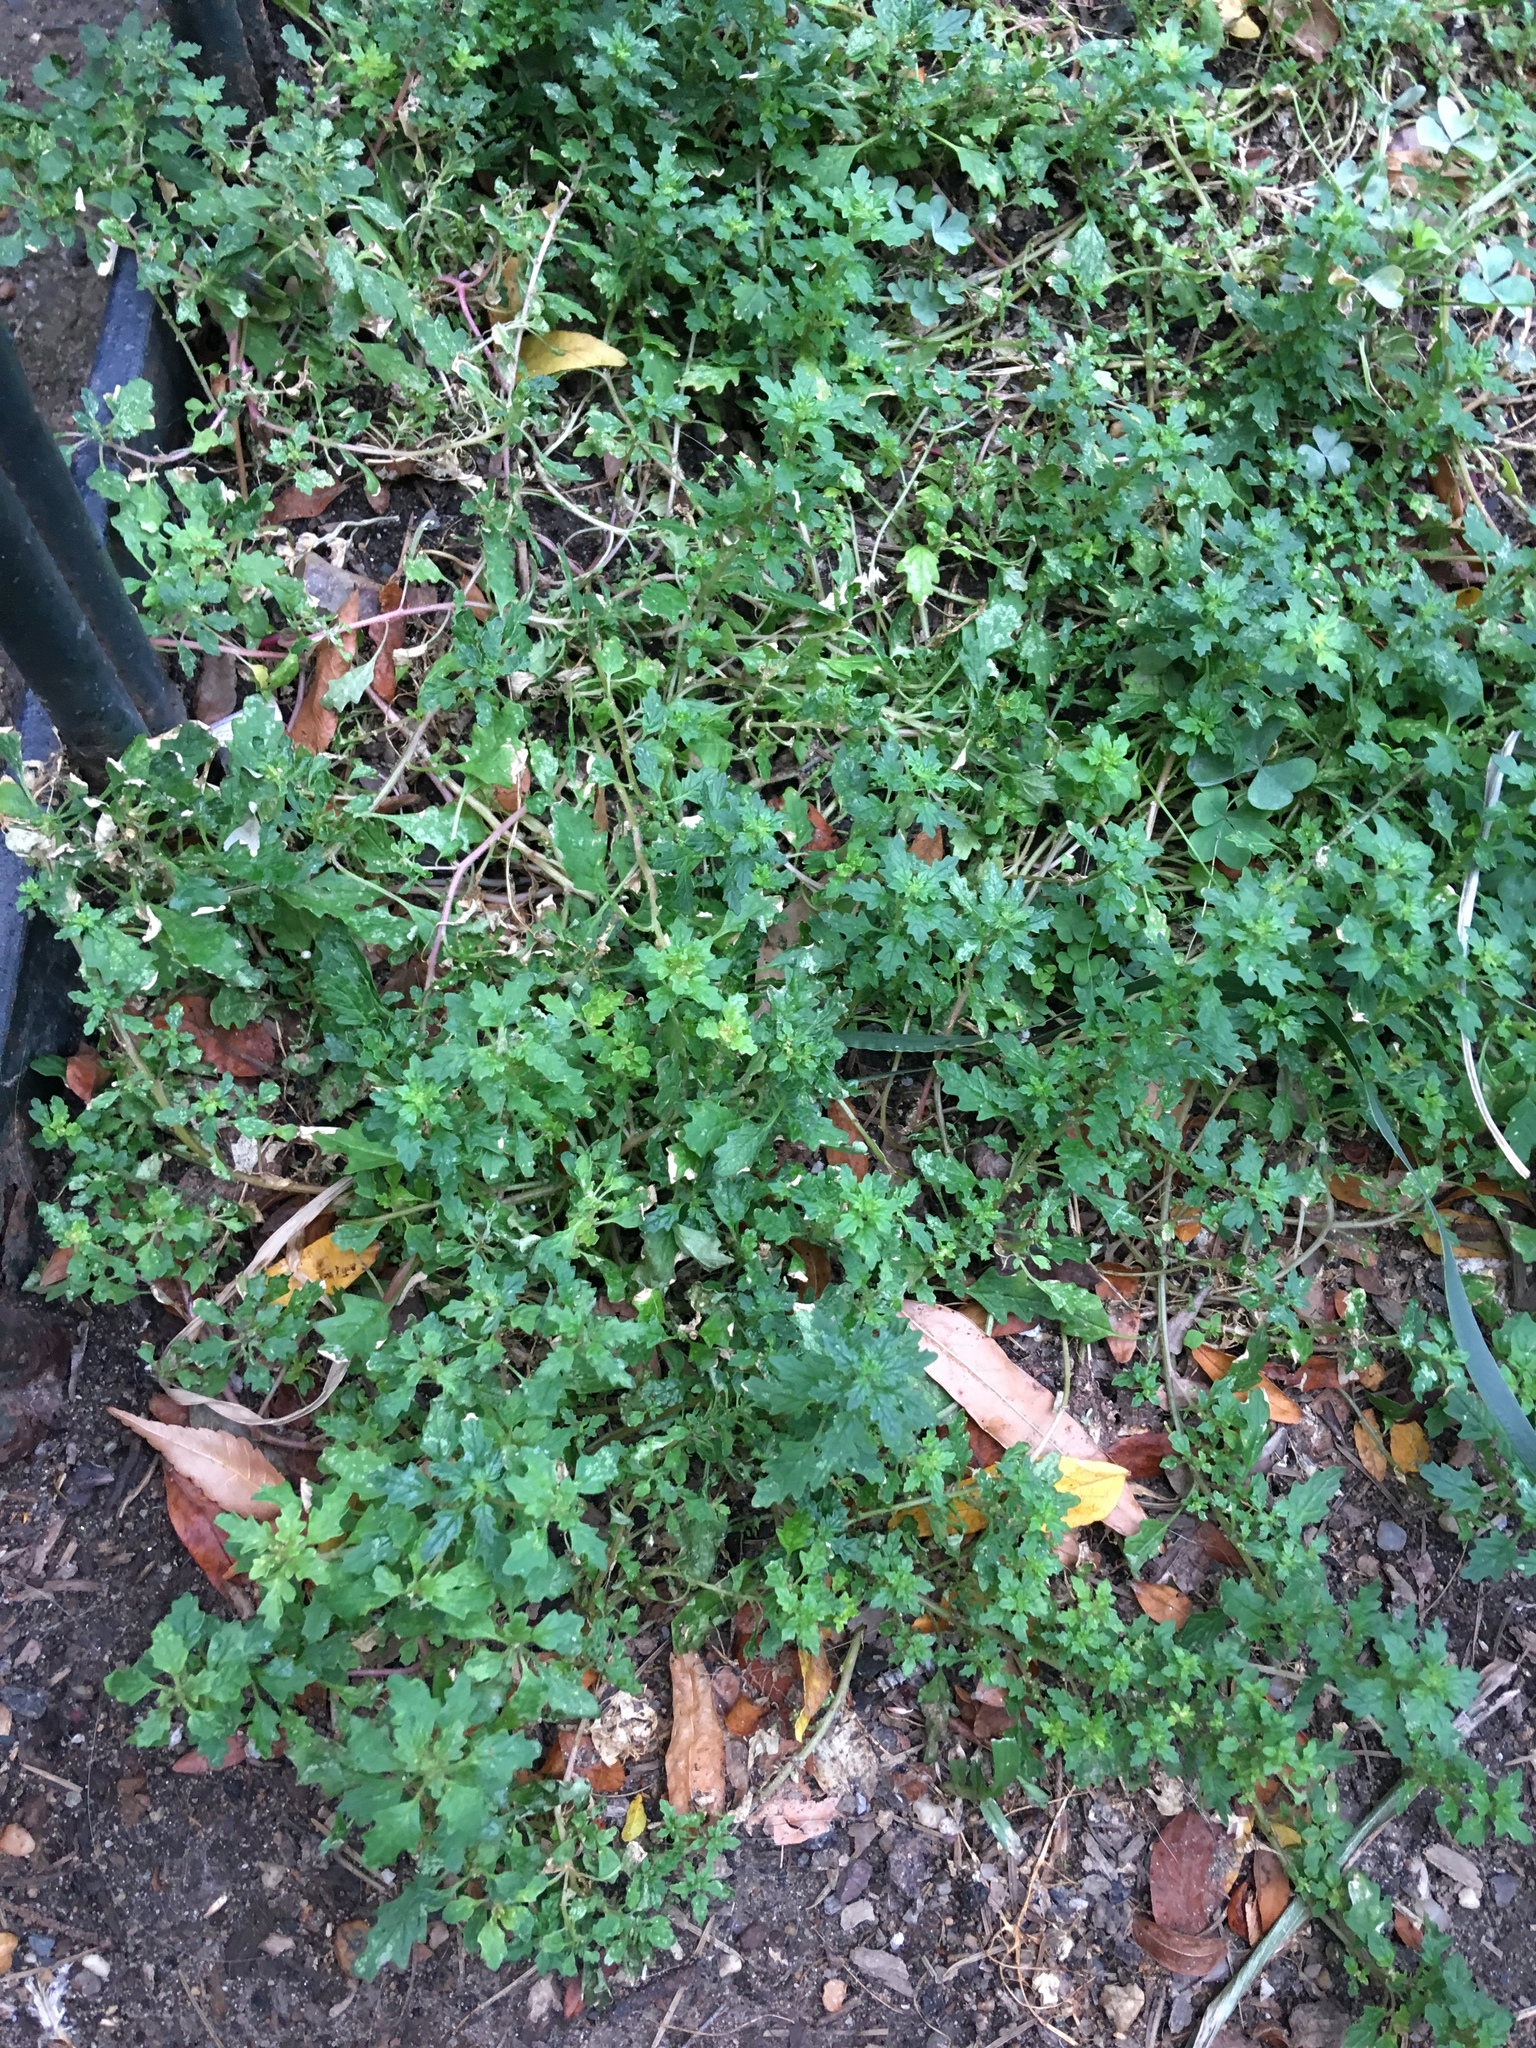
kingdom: Plantae
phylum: Tracheophyta
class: Magnoliopsida
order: Caryophyllales
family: Amaranthaceae
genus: Dysphania
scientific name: Dysphania pumilio
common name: Clammy goosefoot
